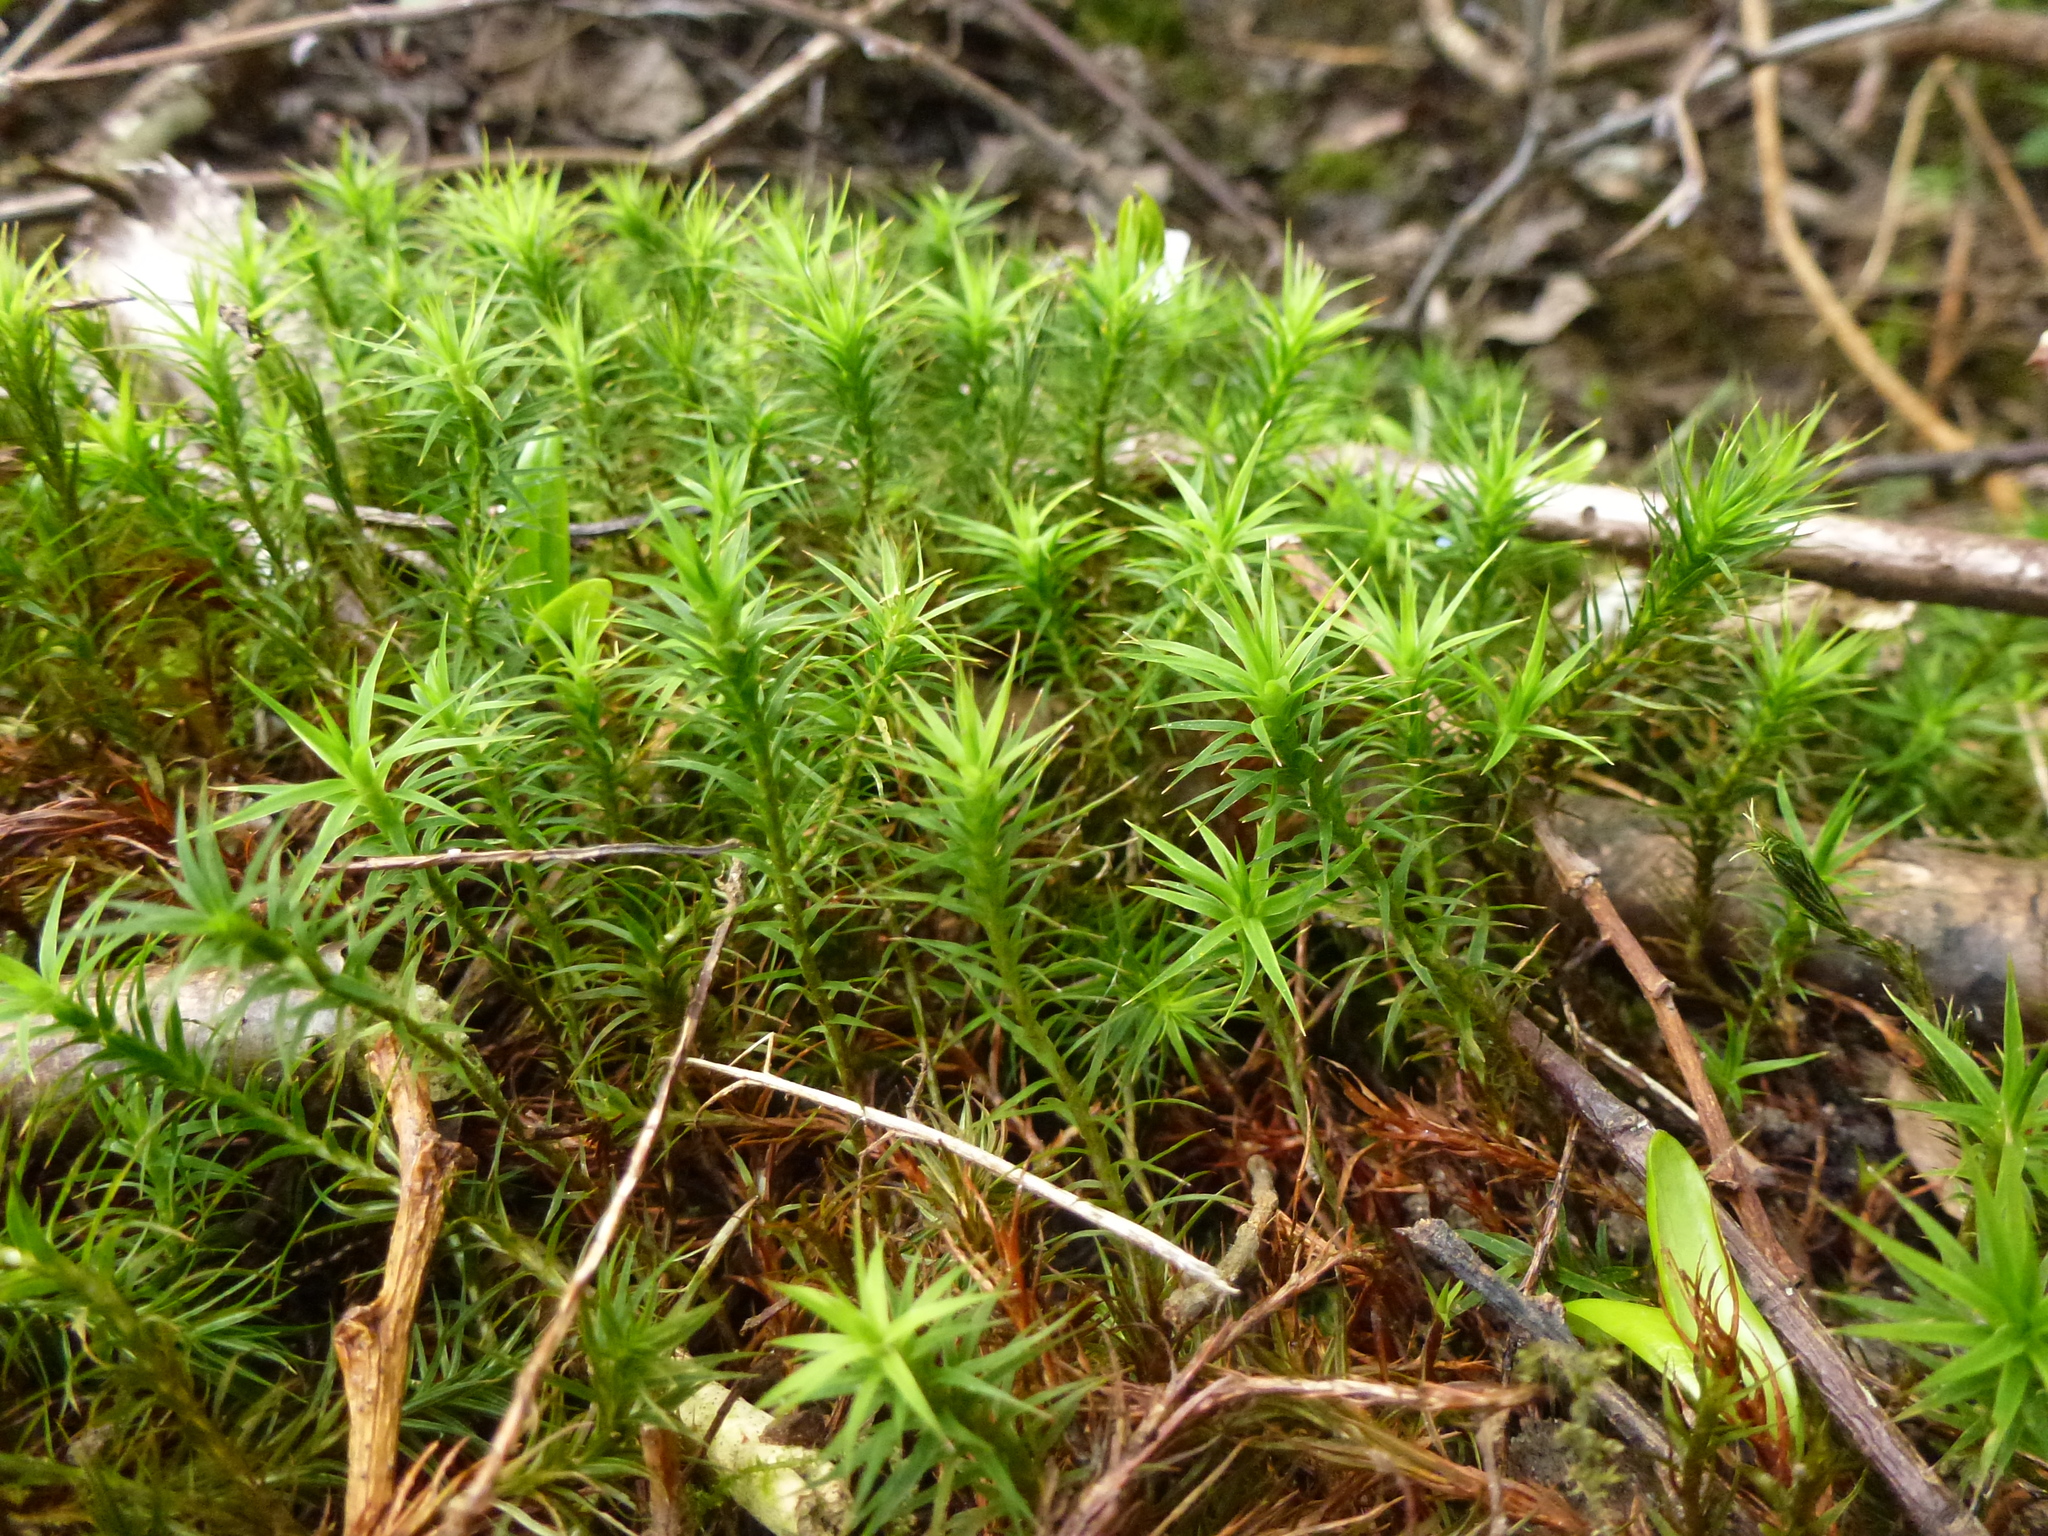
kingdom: Plantae
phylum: Bryophyta
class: Polytrichopsida
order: Polytrichales
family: Polytrichaceae
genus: Polytrichum
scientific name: Polytrichum formosum
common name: Bank haircap moss
